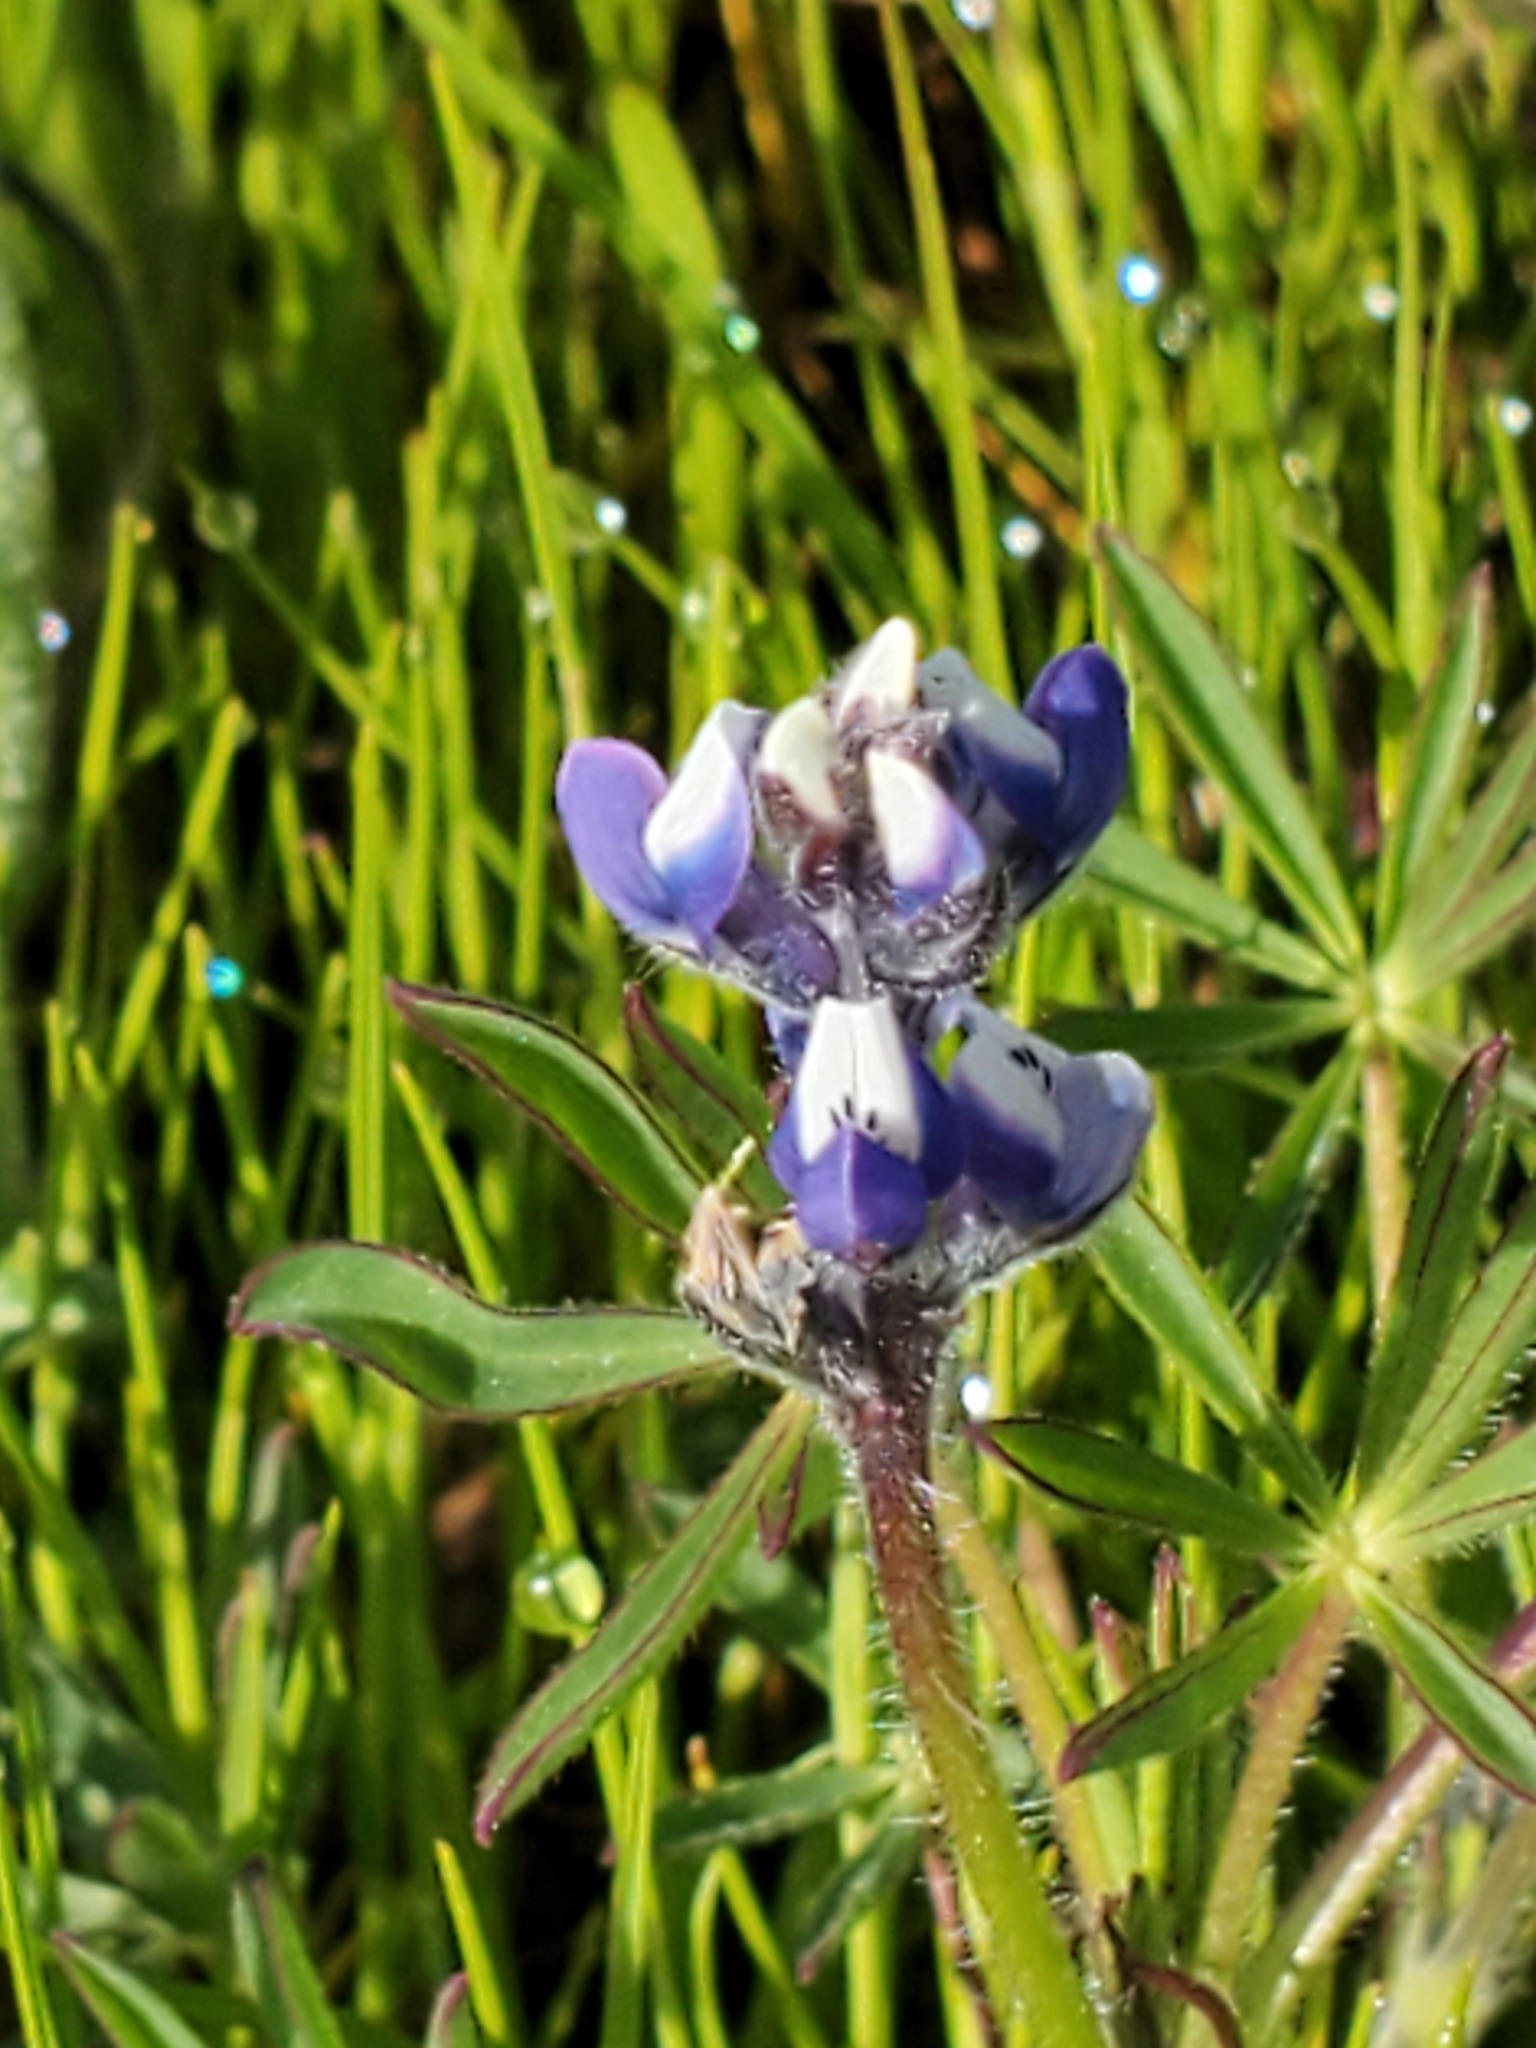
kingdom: Plantae
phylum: Tracheophyta
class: Magnoliopsida
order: Fabales
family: Fabaceae
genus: Lupinus
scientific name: Lupinus bicolor
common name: Miniature lupine
